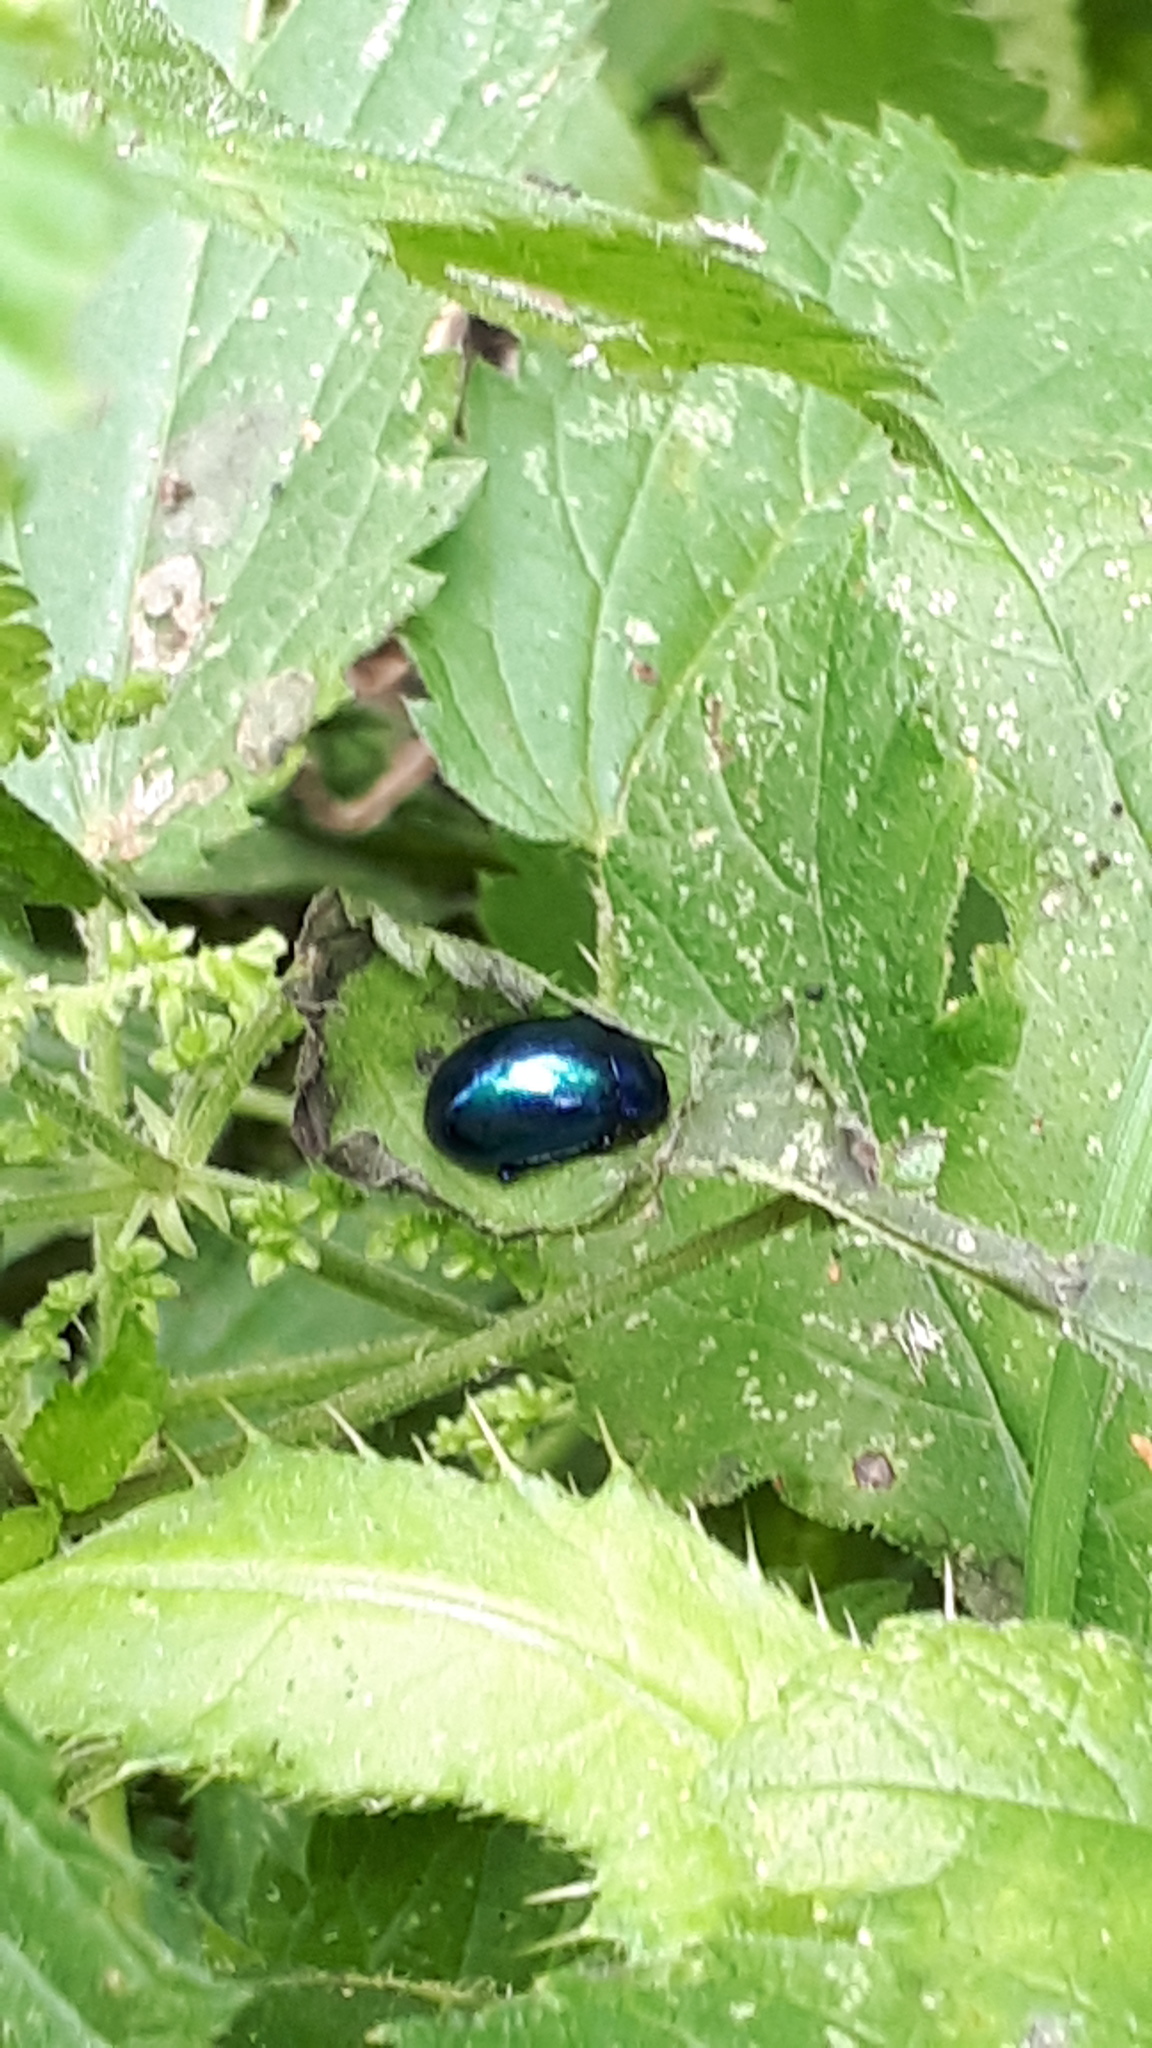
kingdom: Animalia
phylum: Arthropoda
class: Insecta
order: Coleoptera
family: Chrysomelidae
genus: Chrysolina
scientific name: Chrysolina coerulans
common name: Blue mint beetle
